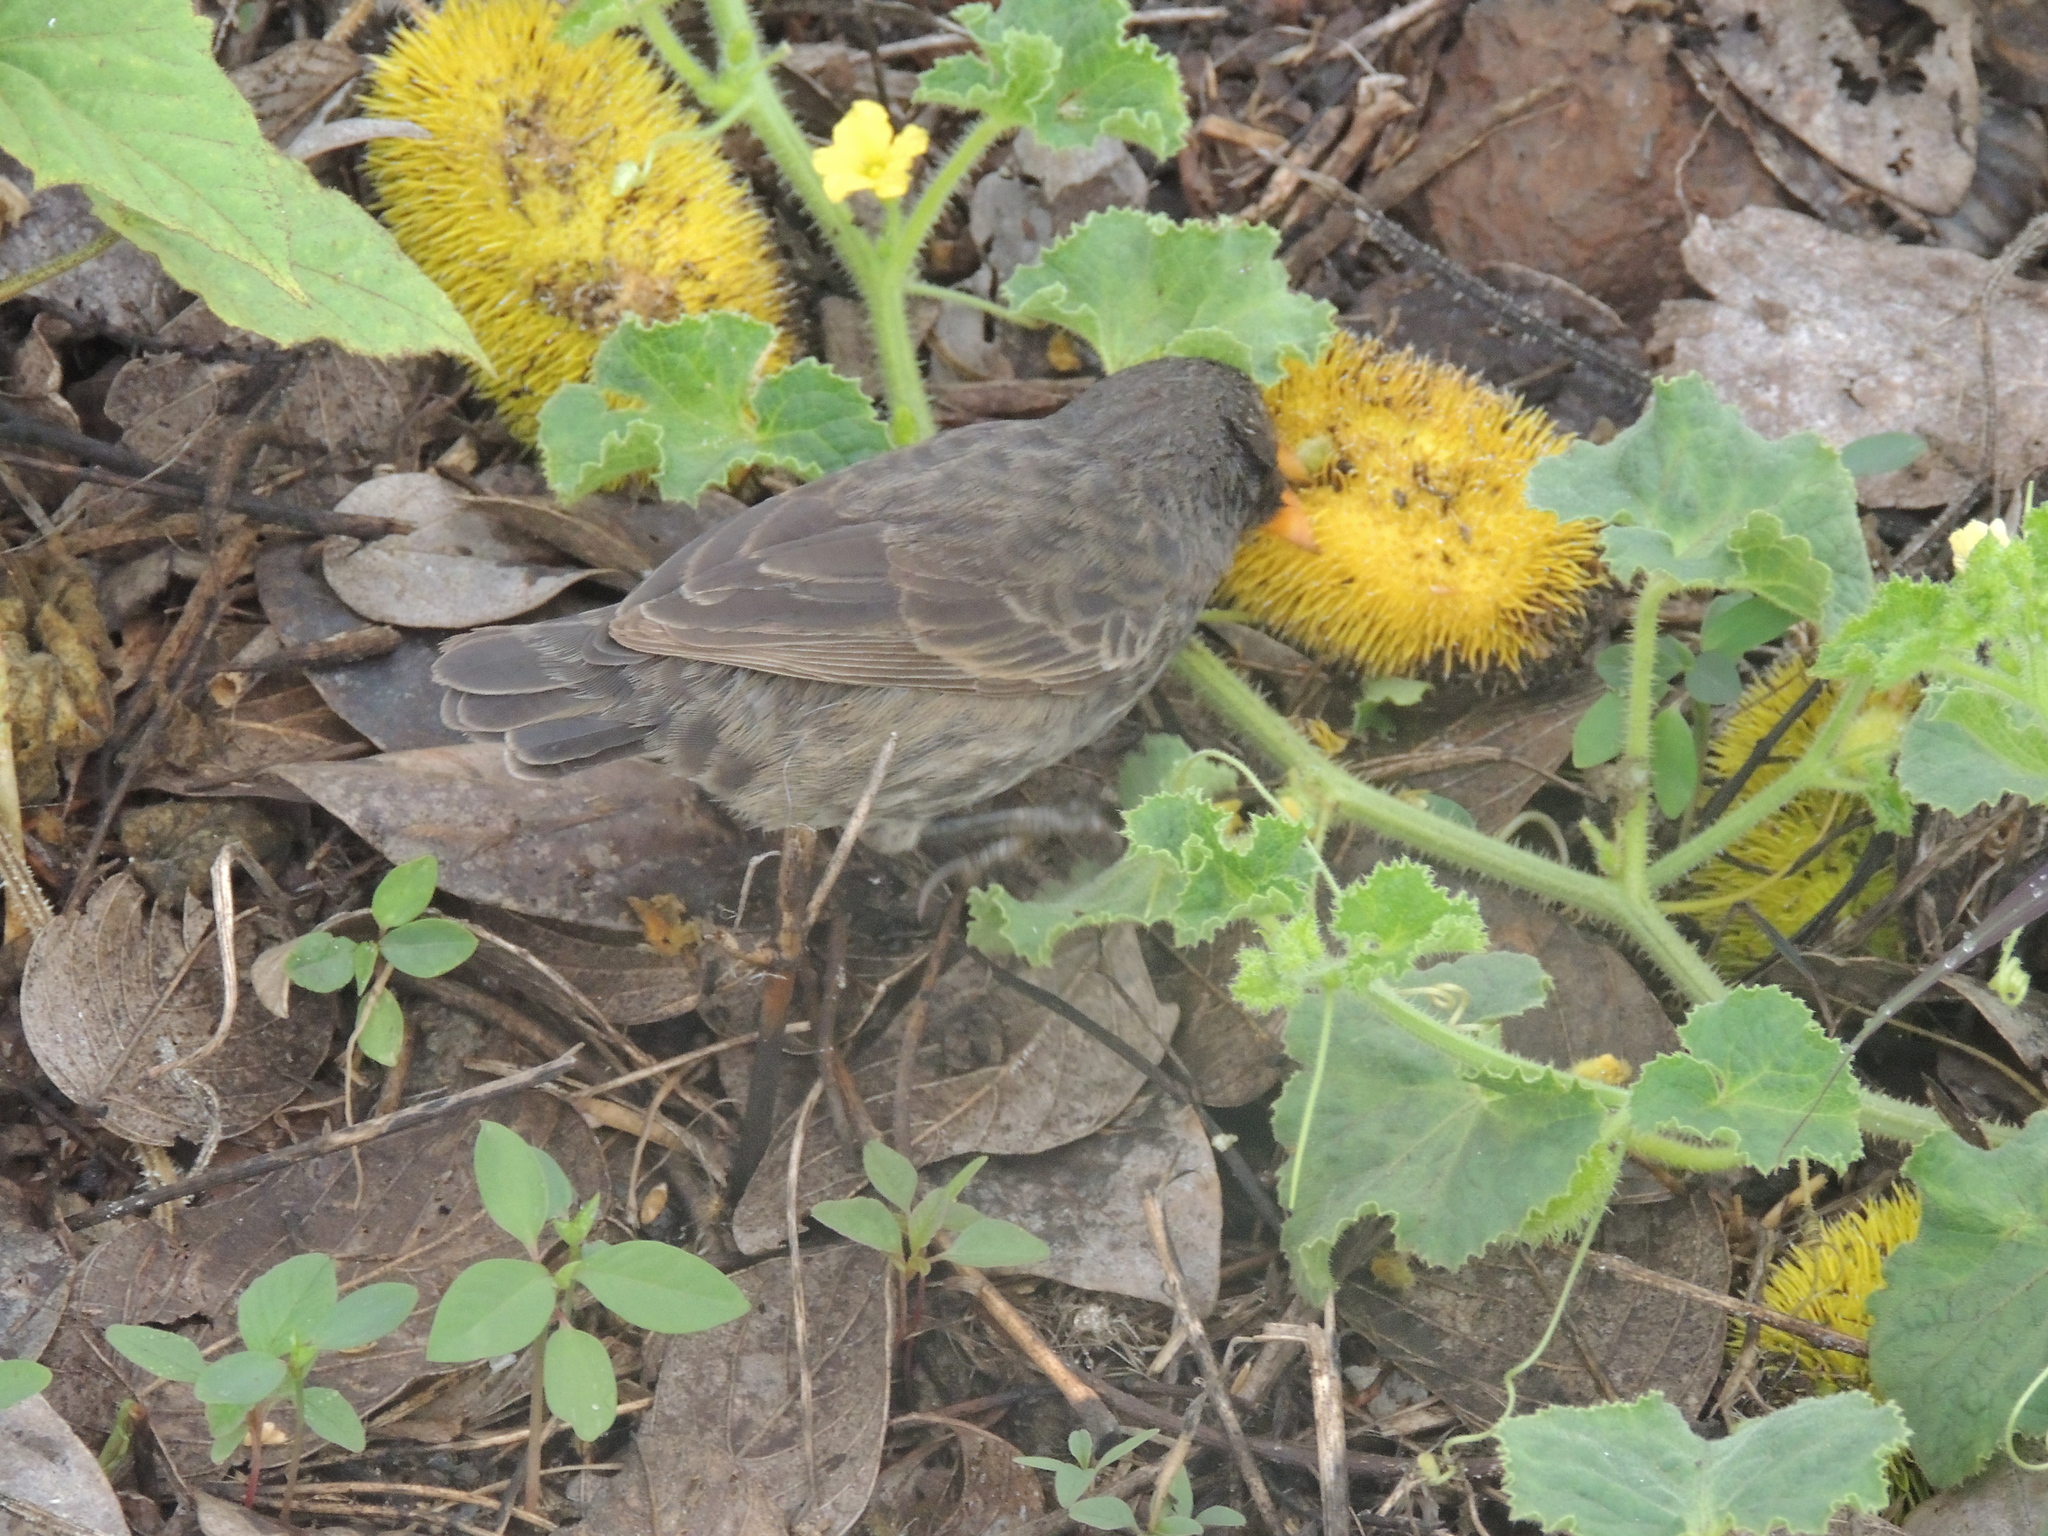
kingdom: Animalia
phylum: Chordata
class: Aves
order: Passeriformes
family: Thraupidae
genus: Geospiza
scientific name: Geospiza fuliginosa
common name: Small ground finch
